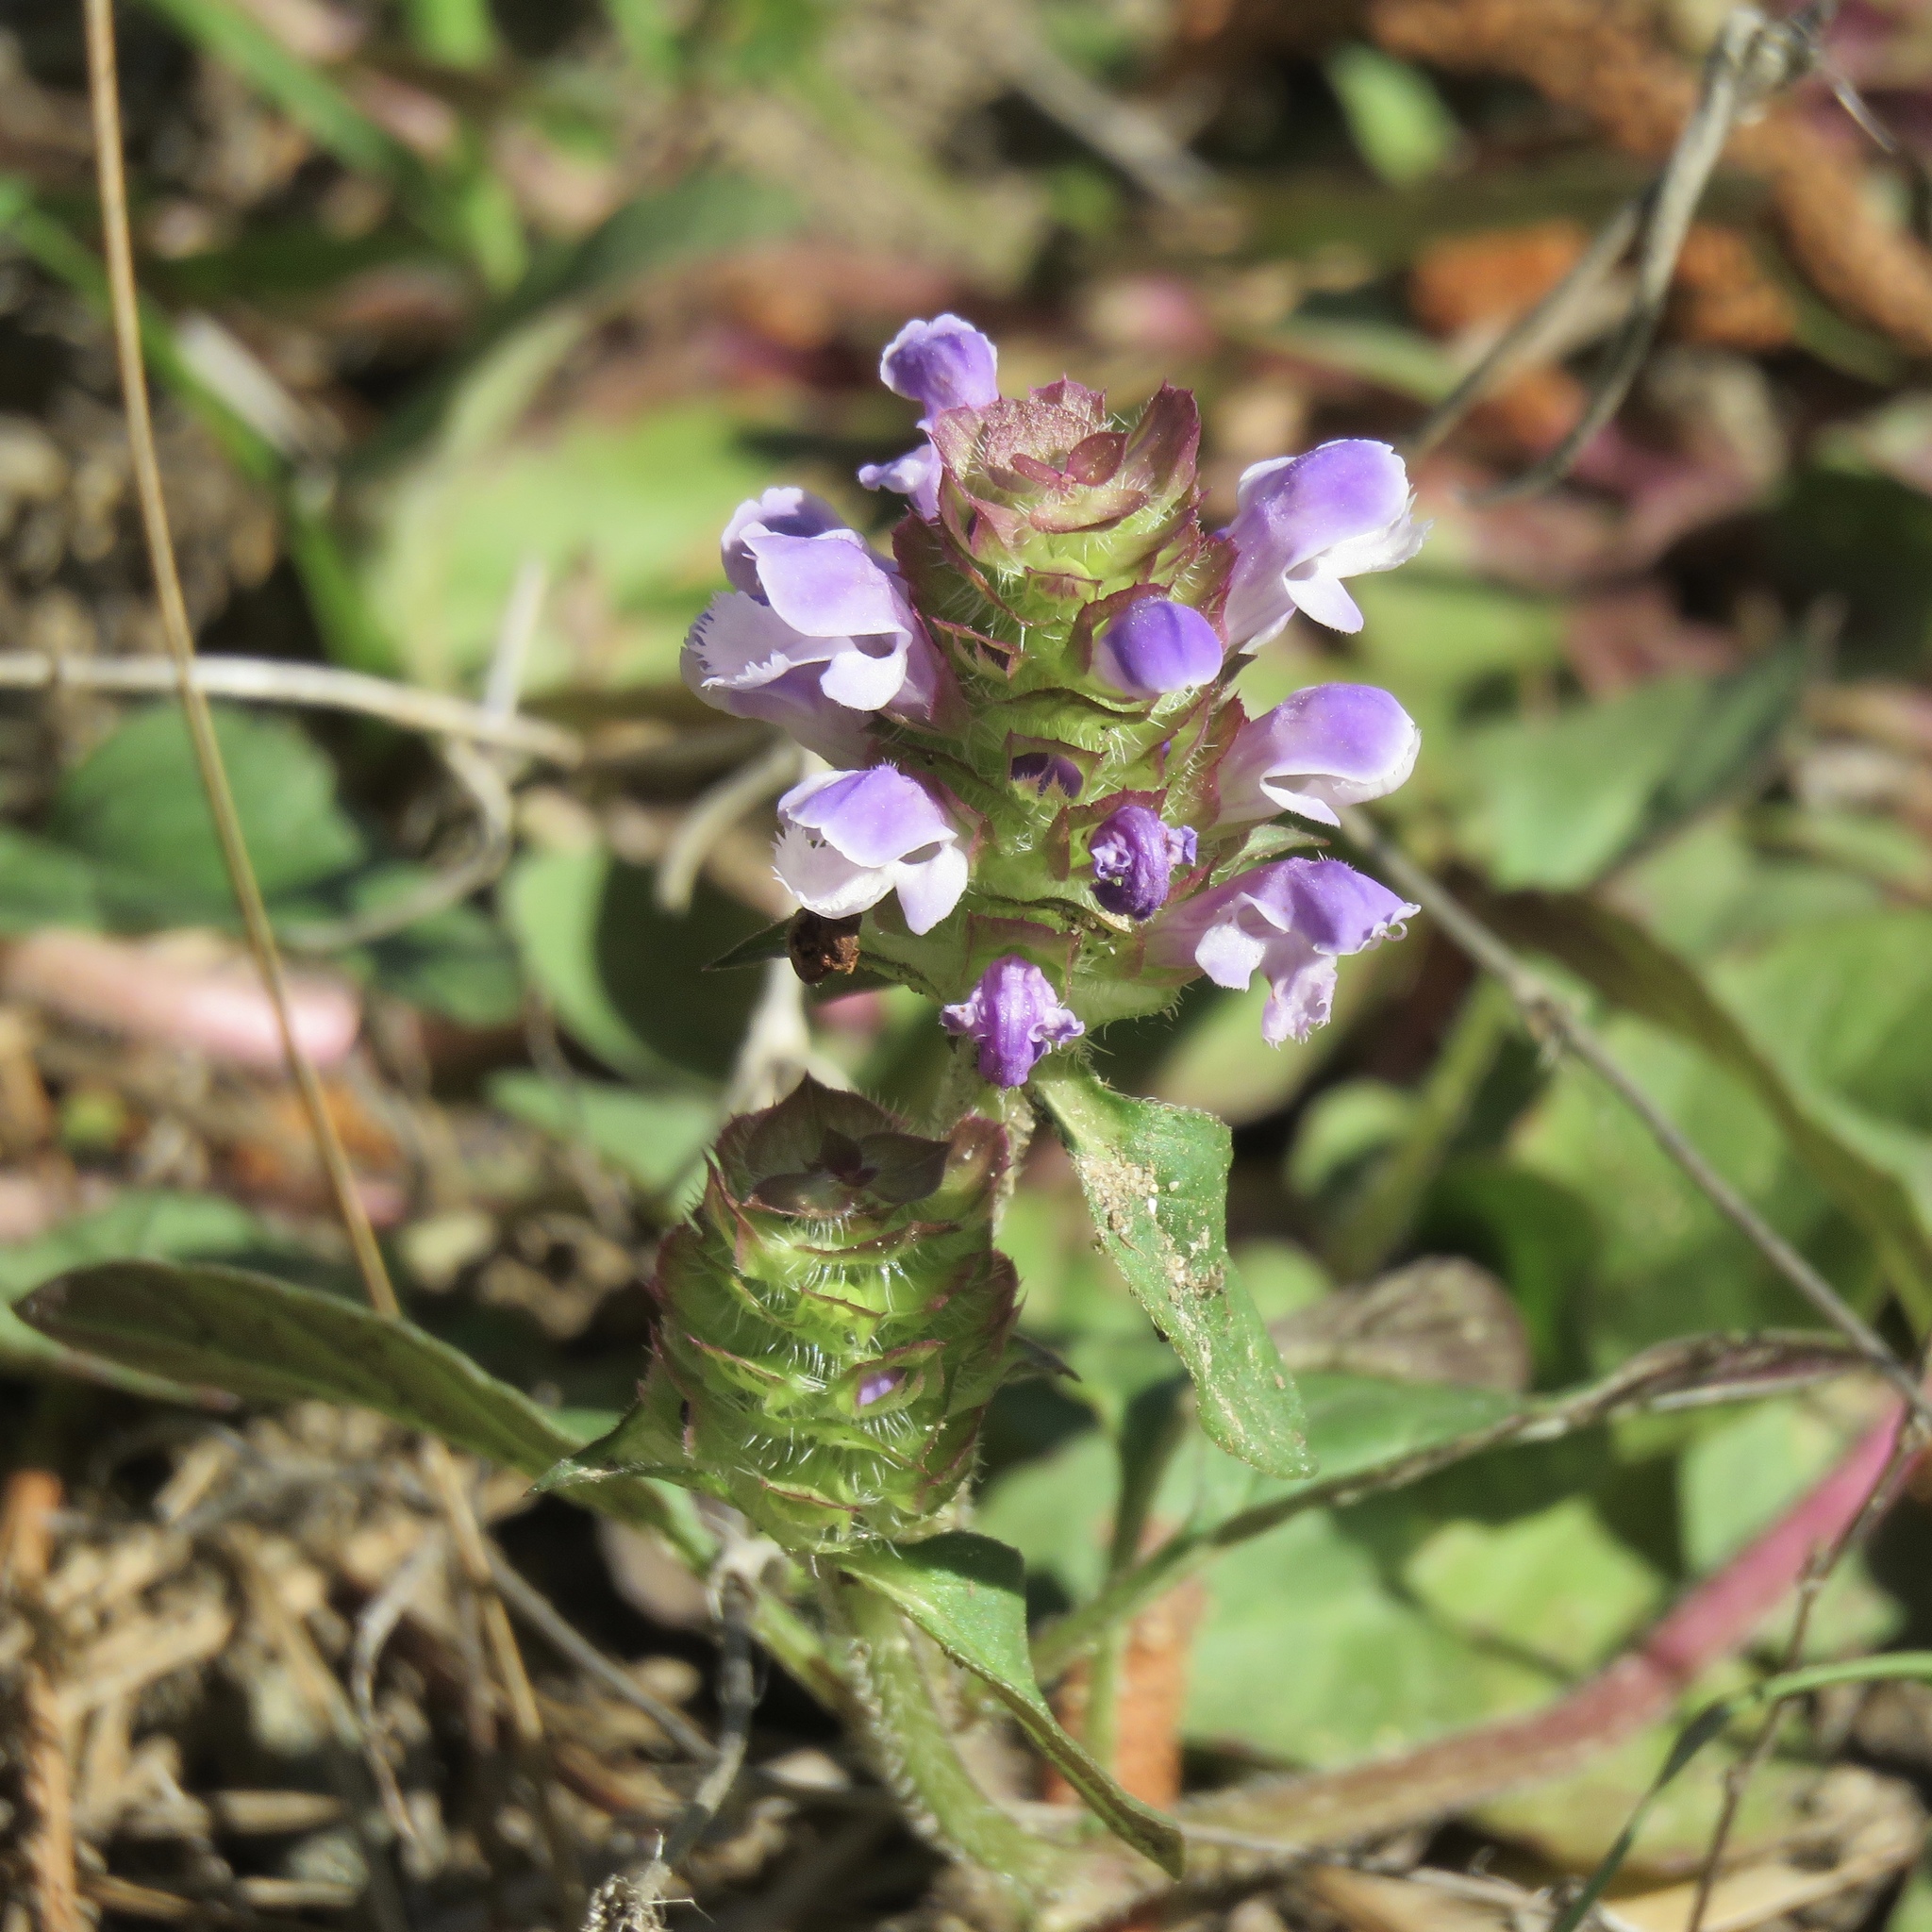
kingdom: Plantae
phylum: Tracheophyta
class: Magnoliopsida
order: Lamiales
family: Lamiaceae
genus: Prunella
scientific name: Prunella vulgaris
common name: Heal-all
